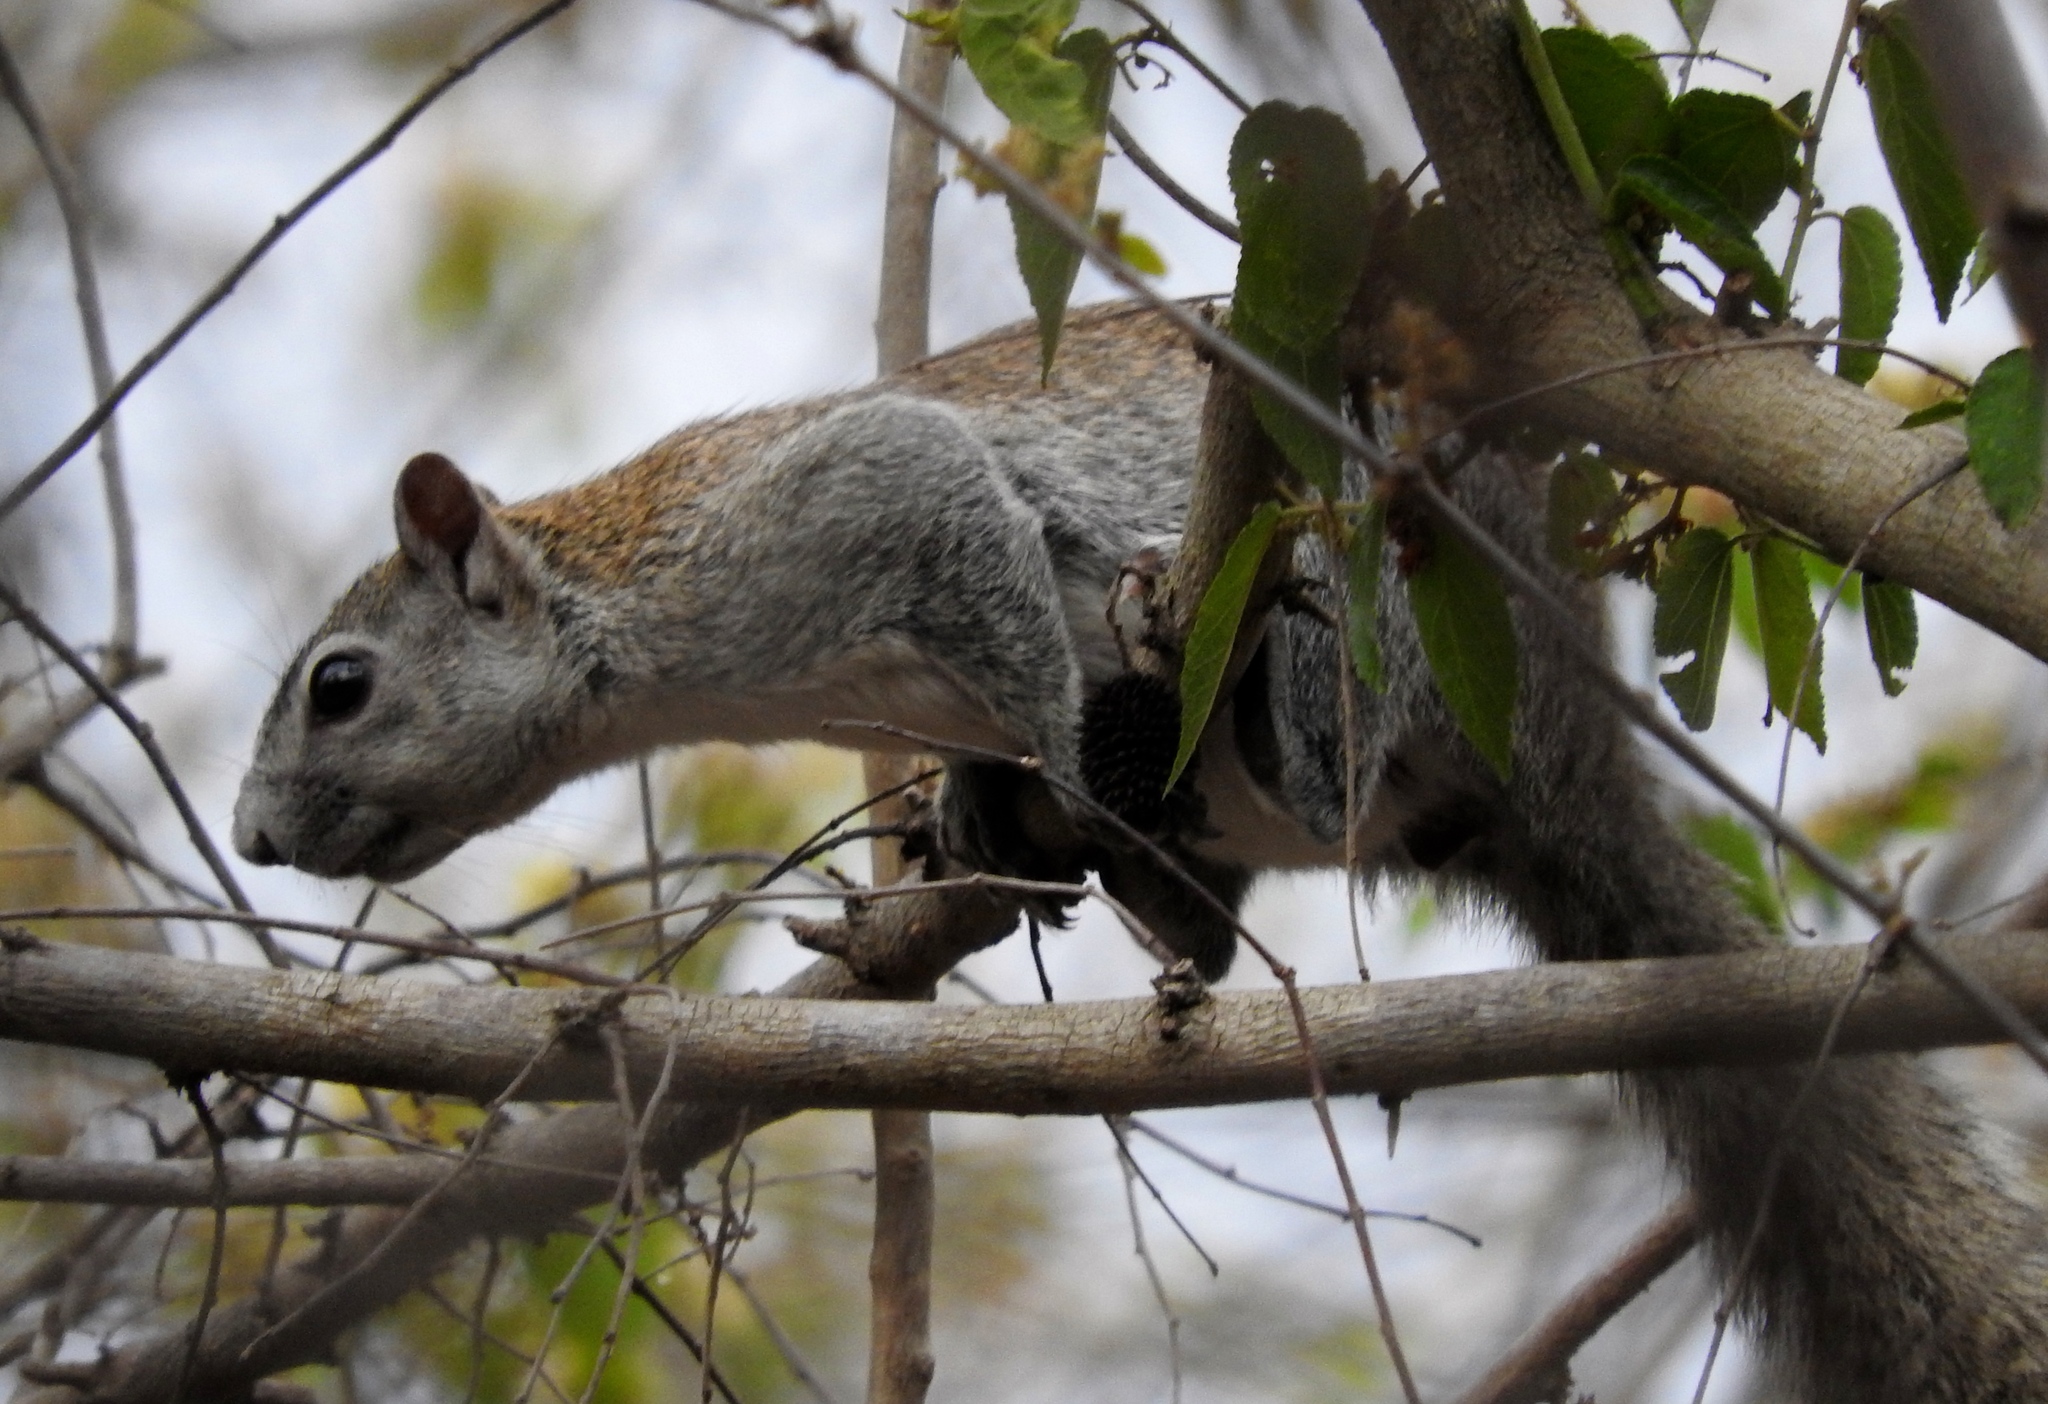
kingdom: Animalia
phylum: Chordata
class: Mammalia
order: Rodentia
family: Sciuridae
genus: Sciurus
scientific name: Sciurus colliaei
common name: Collie's squirrel
